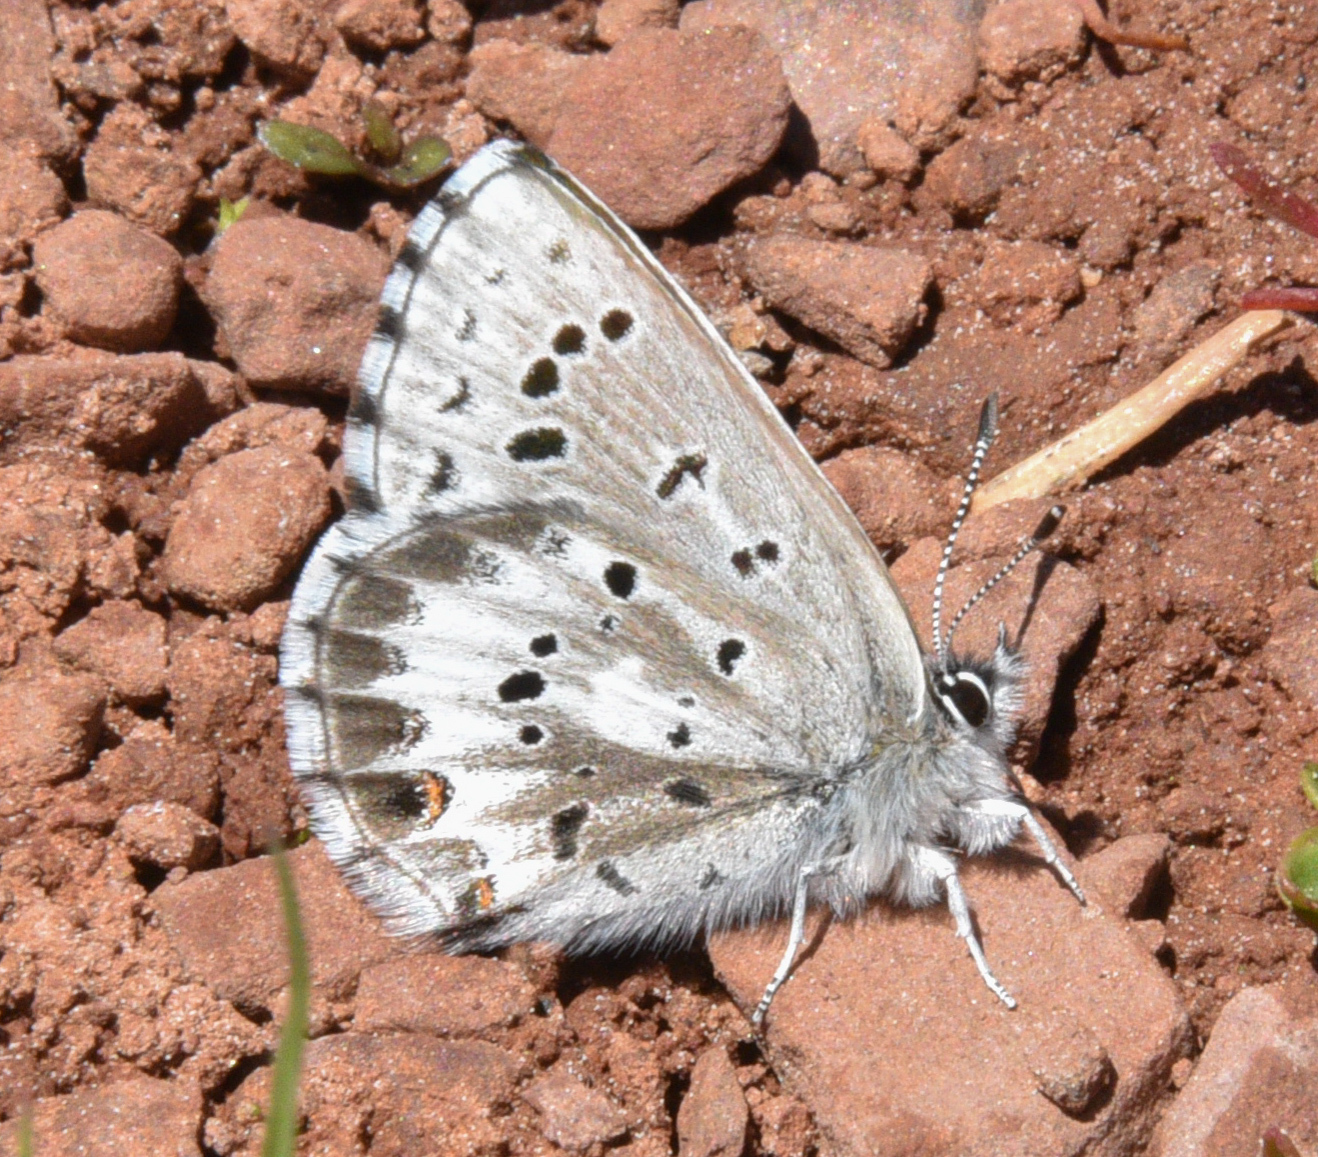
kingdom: Animalia
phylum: Arthropoda
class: Insecta
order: Lepidoptera
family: Lycaenidae
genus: Glaucopsyche
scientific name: Glaucopsyche piasus
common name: Arrowhead blue
